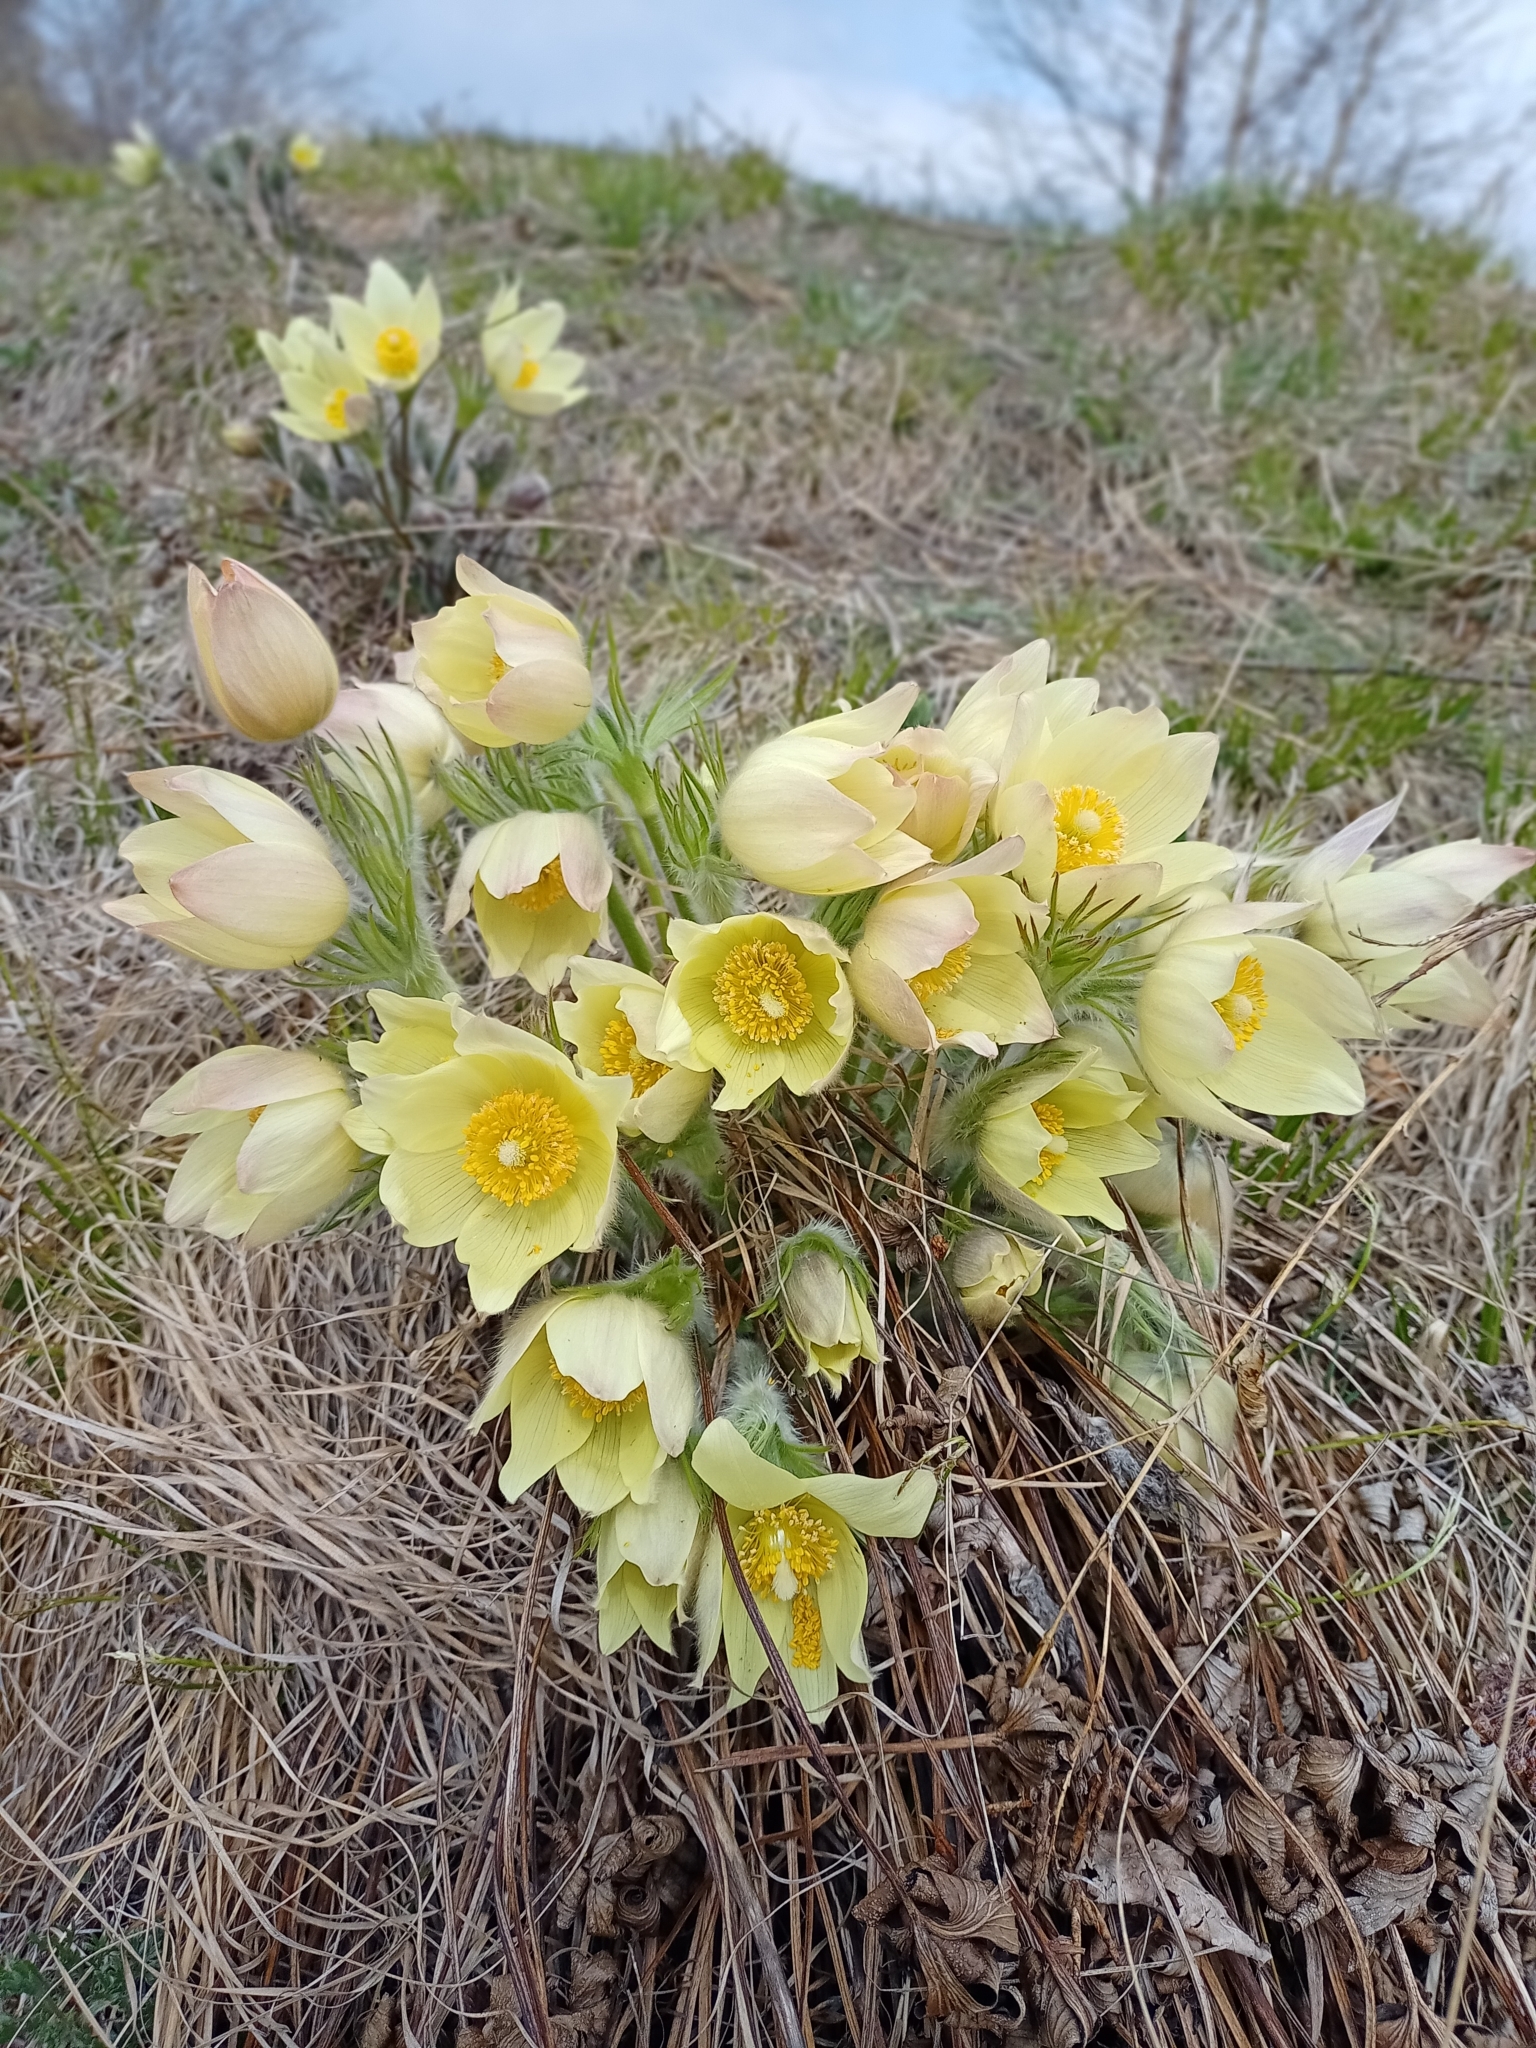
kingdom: Plantae
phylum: Tracheophyta
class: Magnoliopsida
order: Ranunculales
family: Ranunculaceae
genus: Pulsatilla
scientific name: Pulsatilla patens
